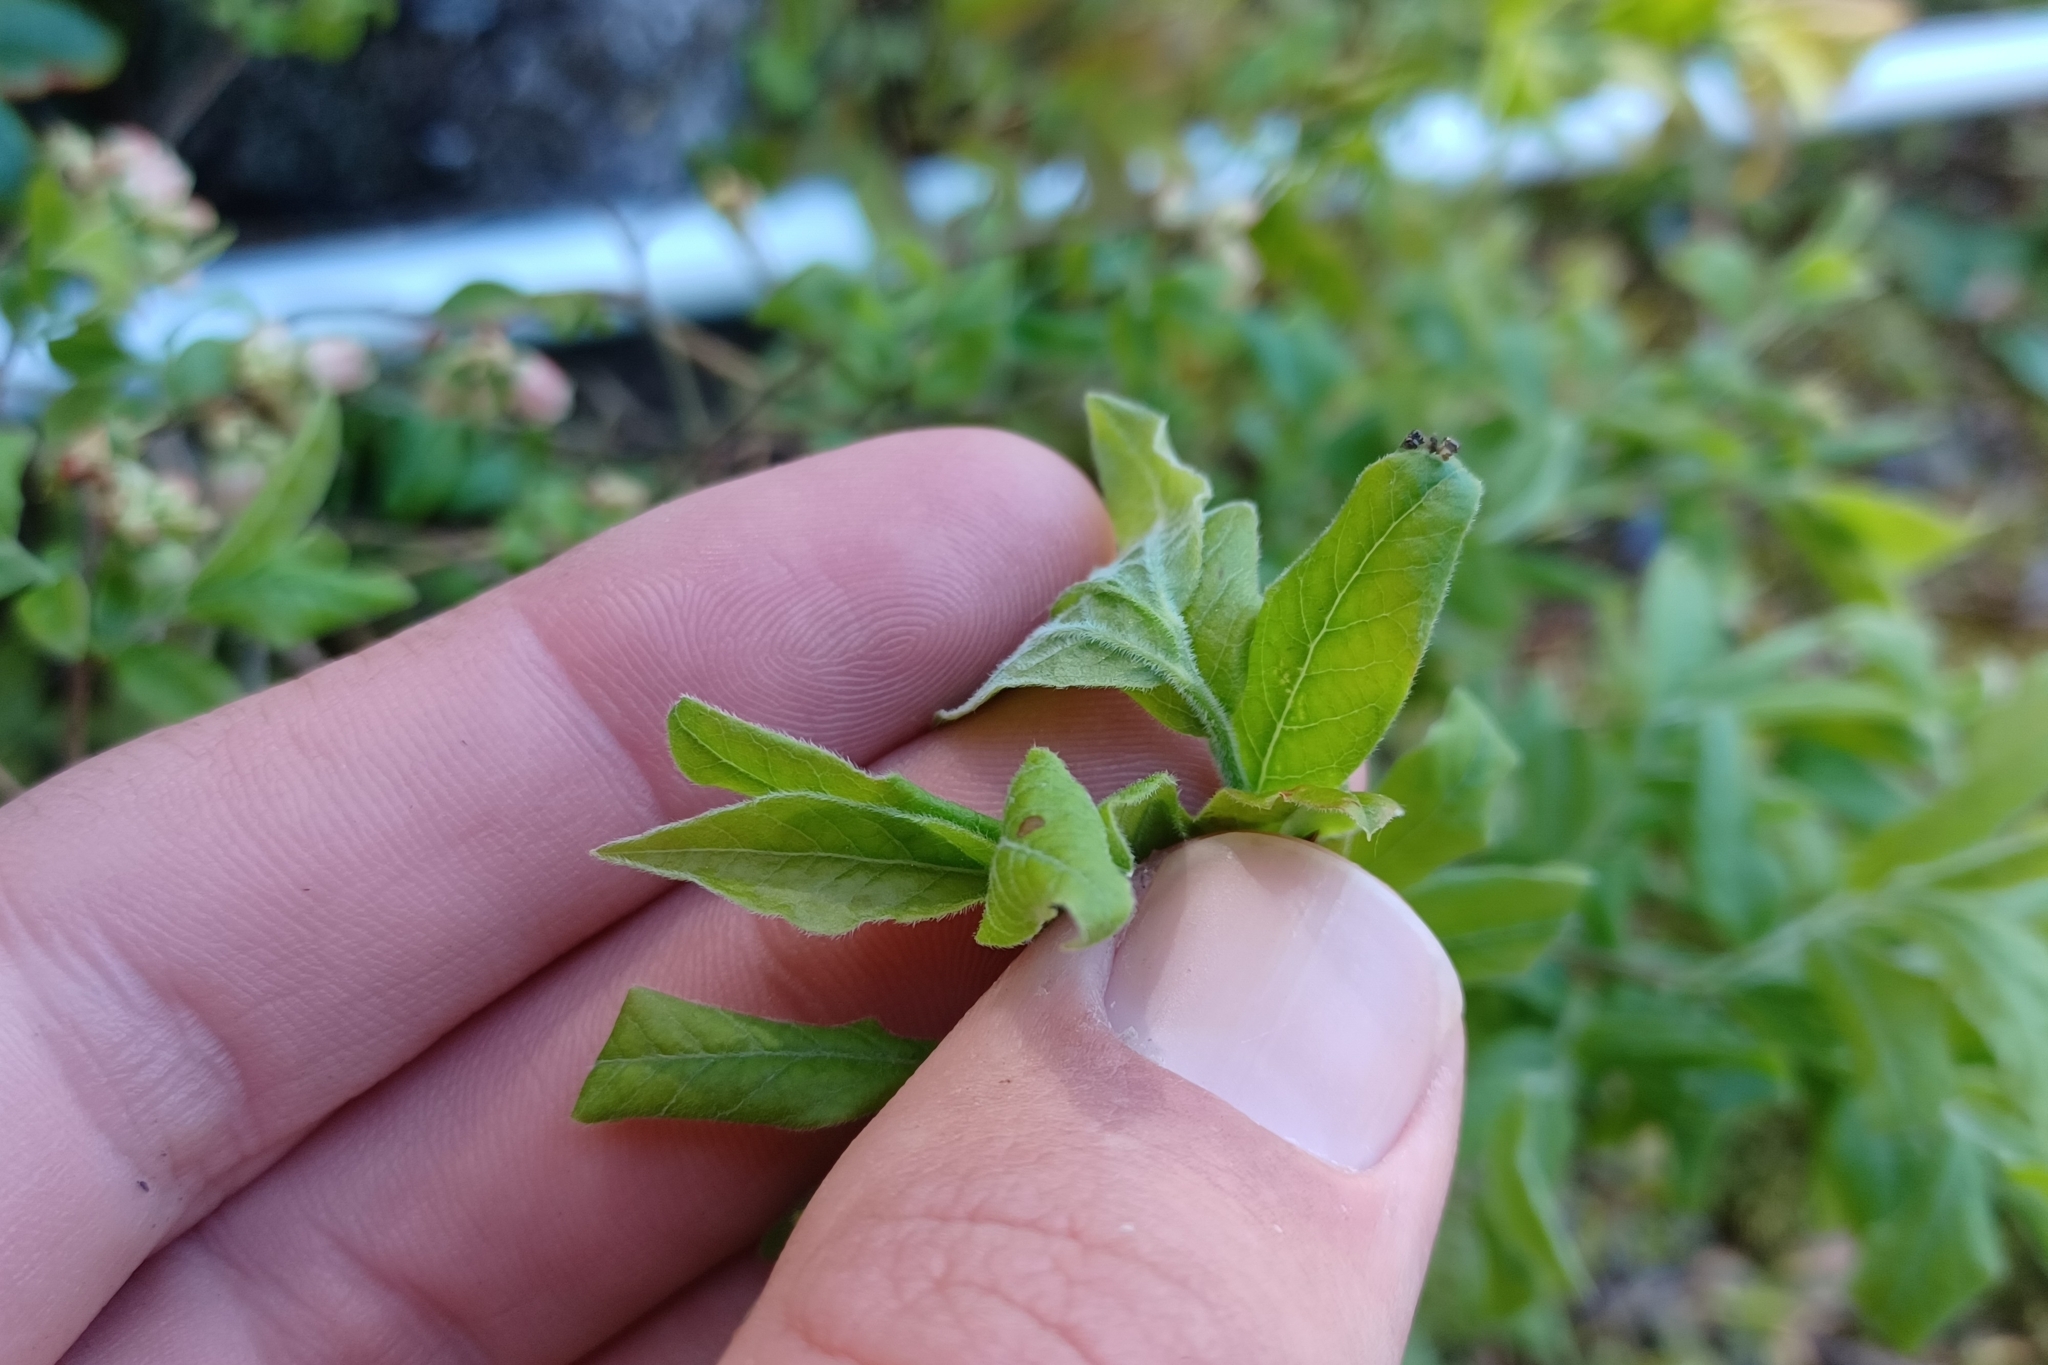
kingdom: Plantae
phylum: Tracheophyta
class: Magnoliopsida
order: Ericales
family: Ericaceae
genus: Vaccinium
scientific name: Vaccinium myrtilloides
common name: Canada blueberry
